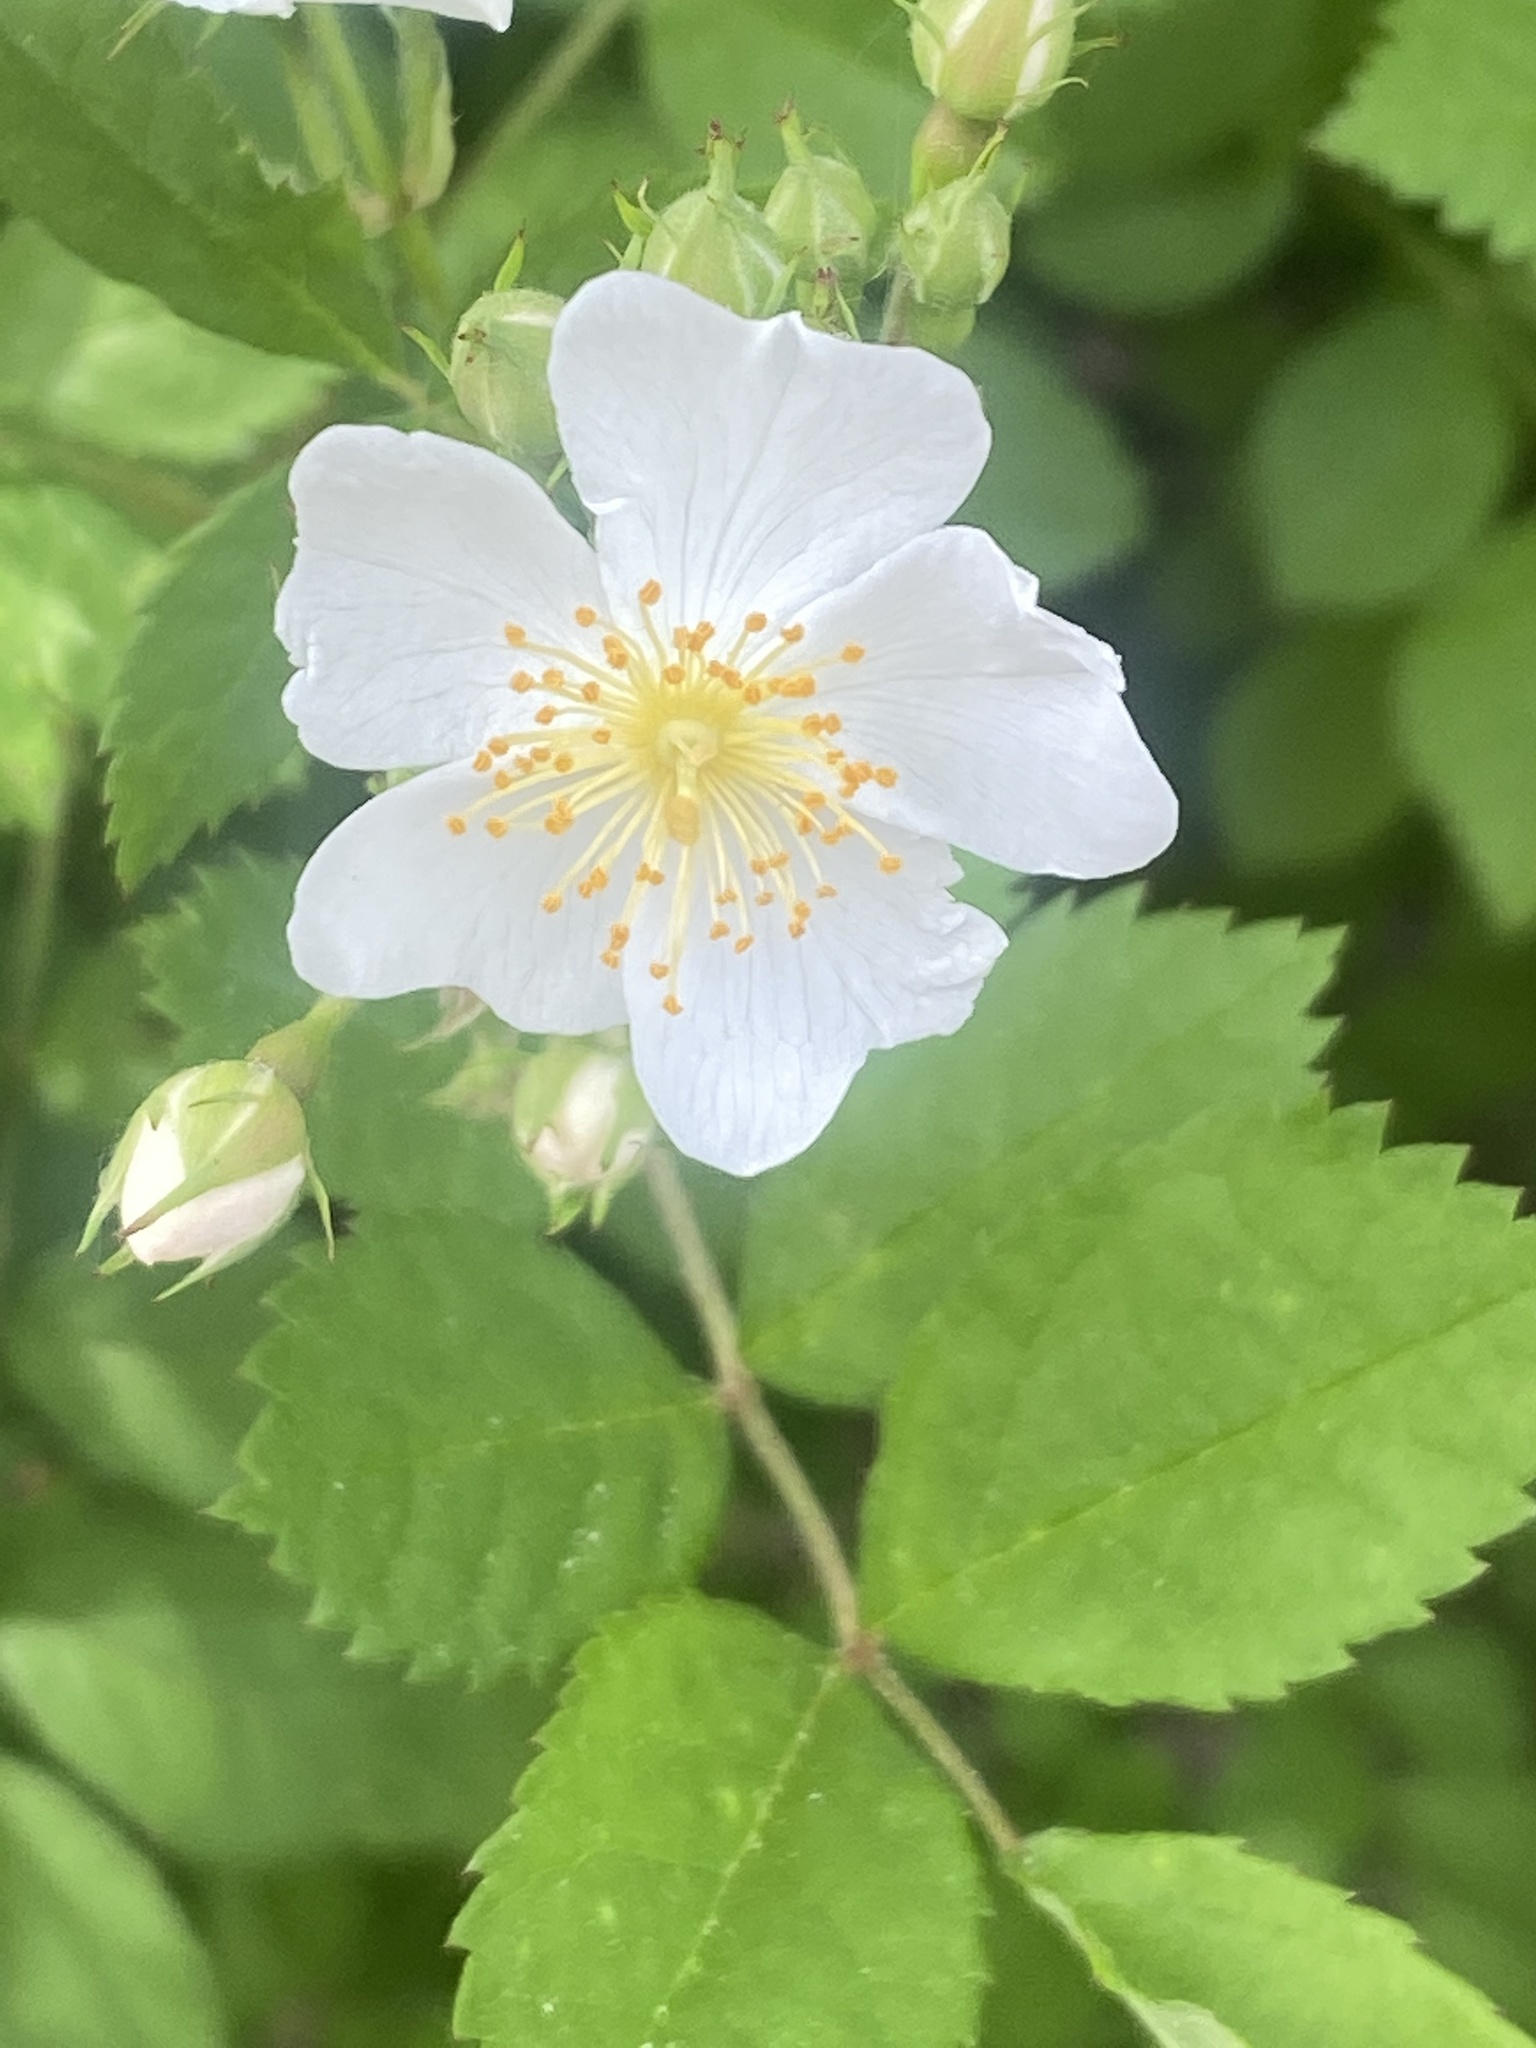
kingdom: Plantae
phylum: Tracheophyta
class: Magnoliopsida
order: Rosales
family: Rosaceae
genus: Rosa
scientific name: Rosa multiflora
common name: Multiflora rose
